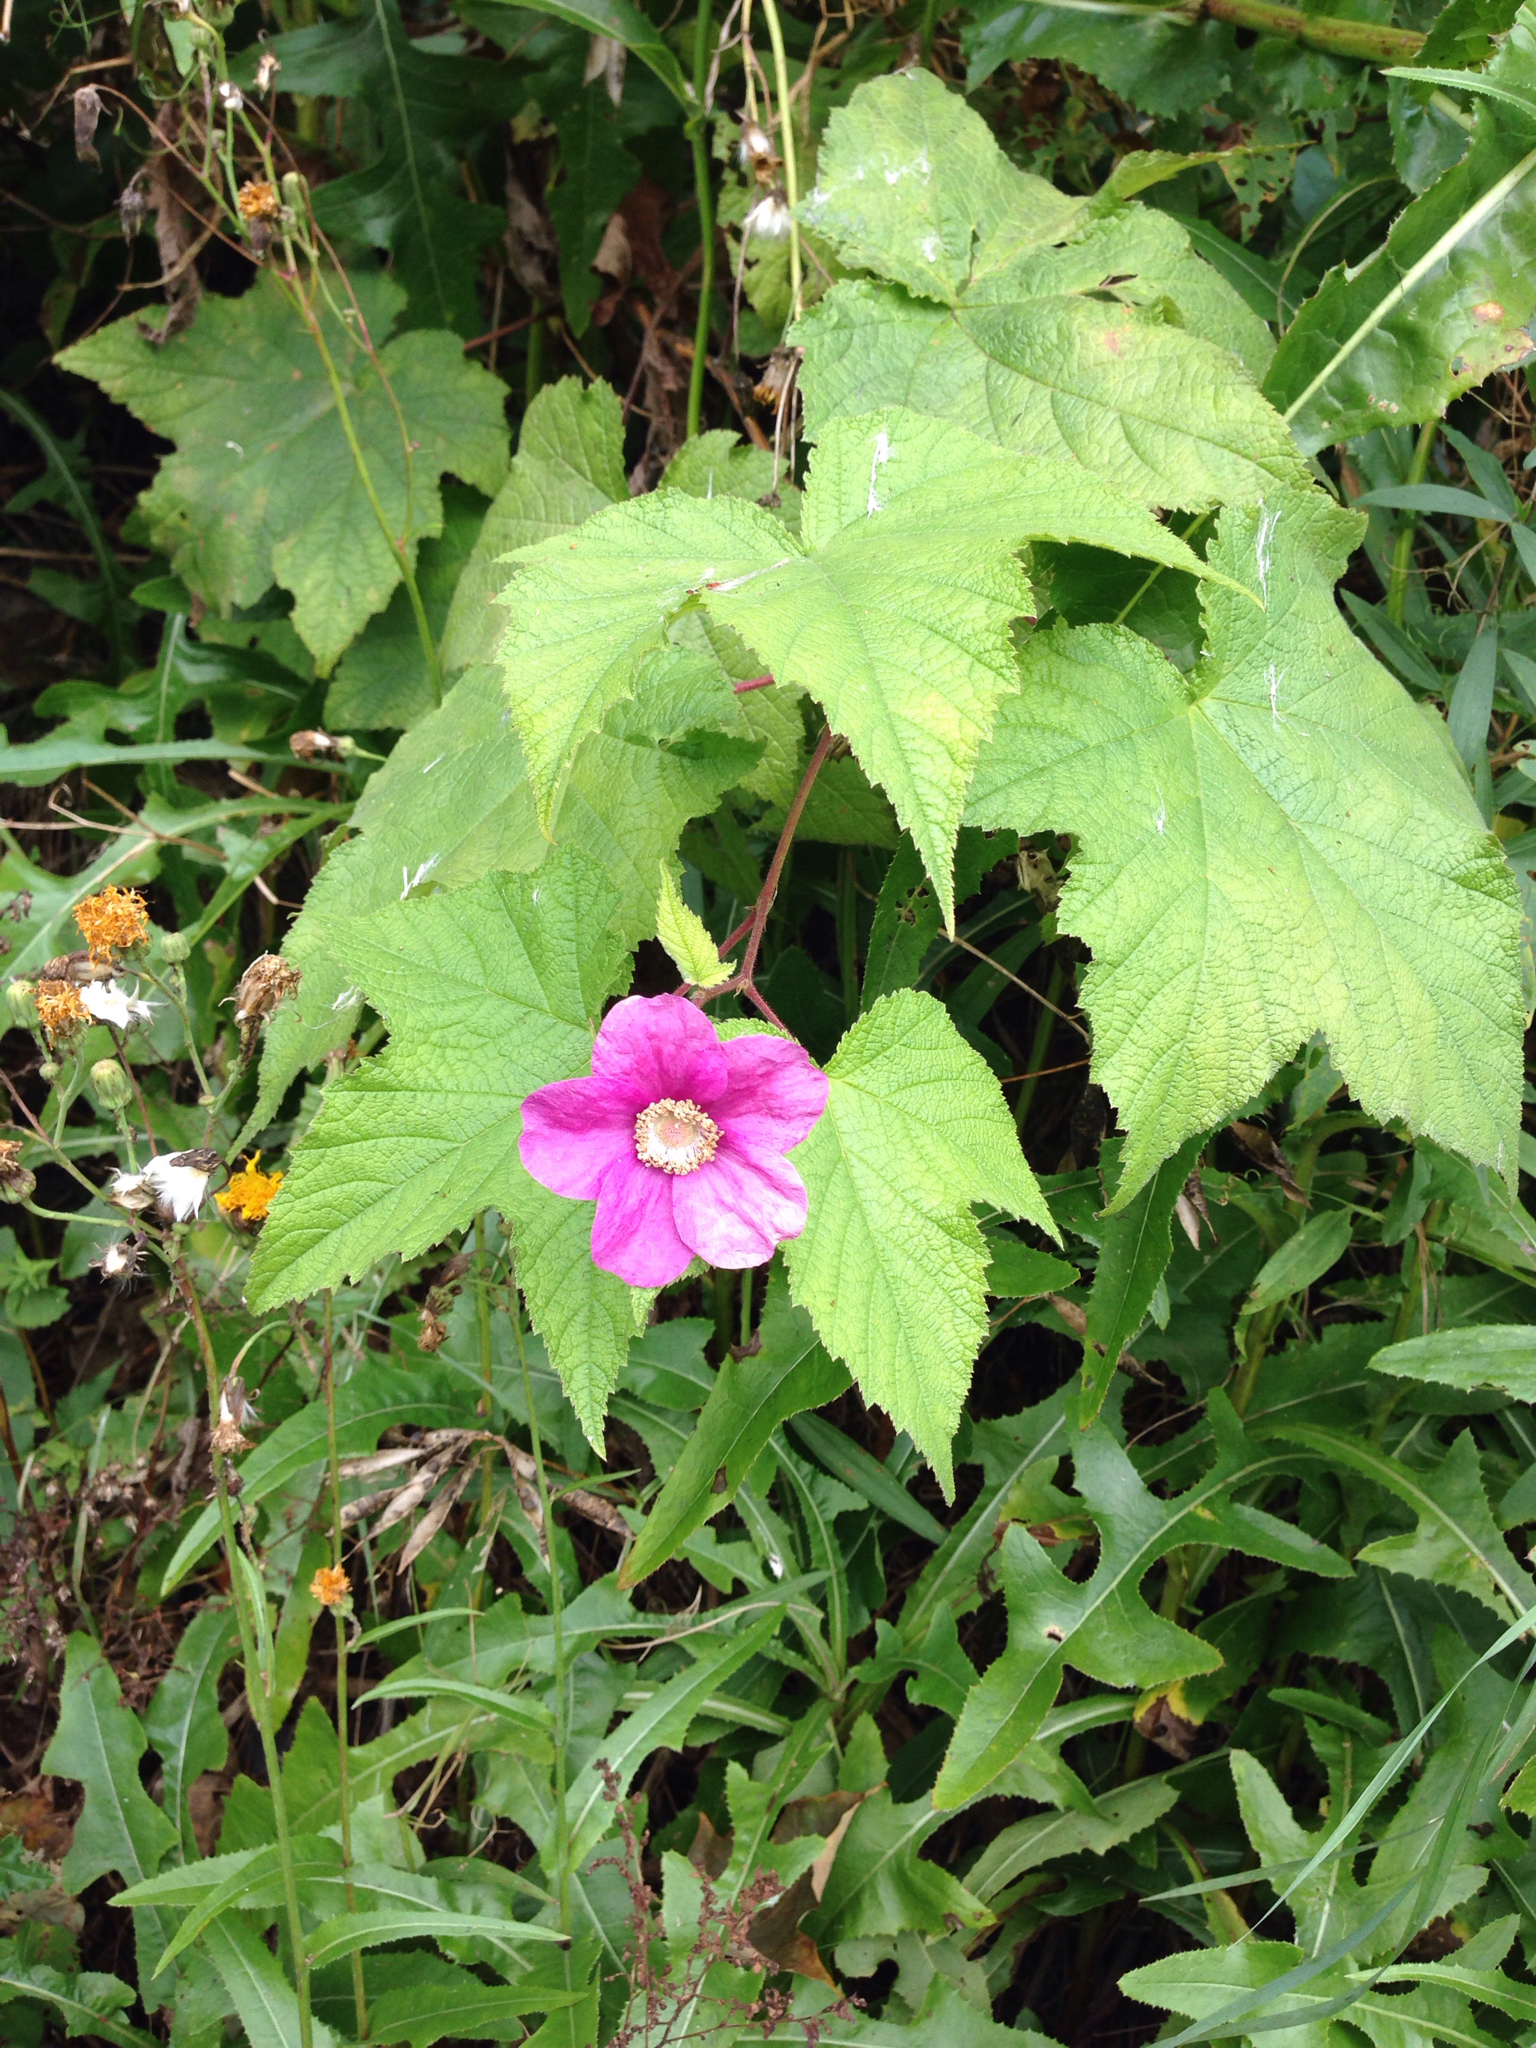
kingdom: Plantae
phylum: Tracheophyta
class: Magnoliopsida
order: Rosales
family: Rosaceae
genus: Rubus
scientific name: Rubus odoratus
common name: Purple-flowered raspberry
